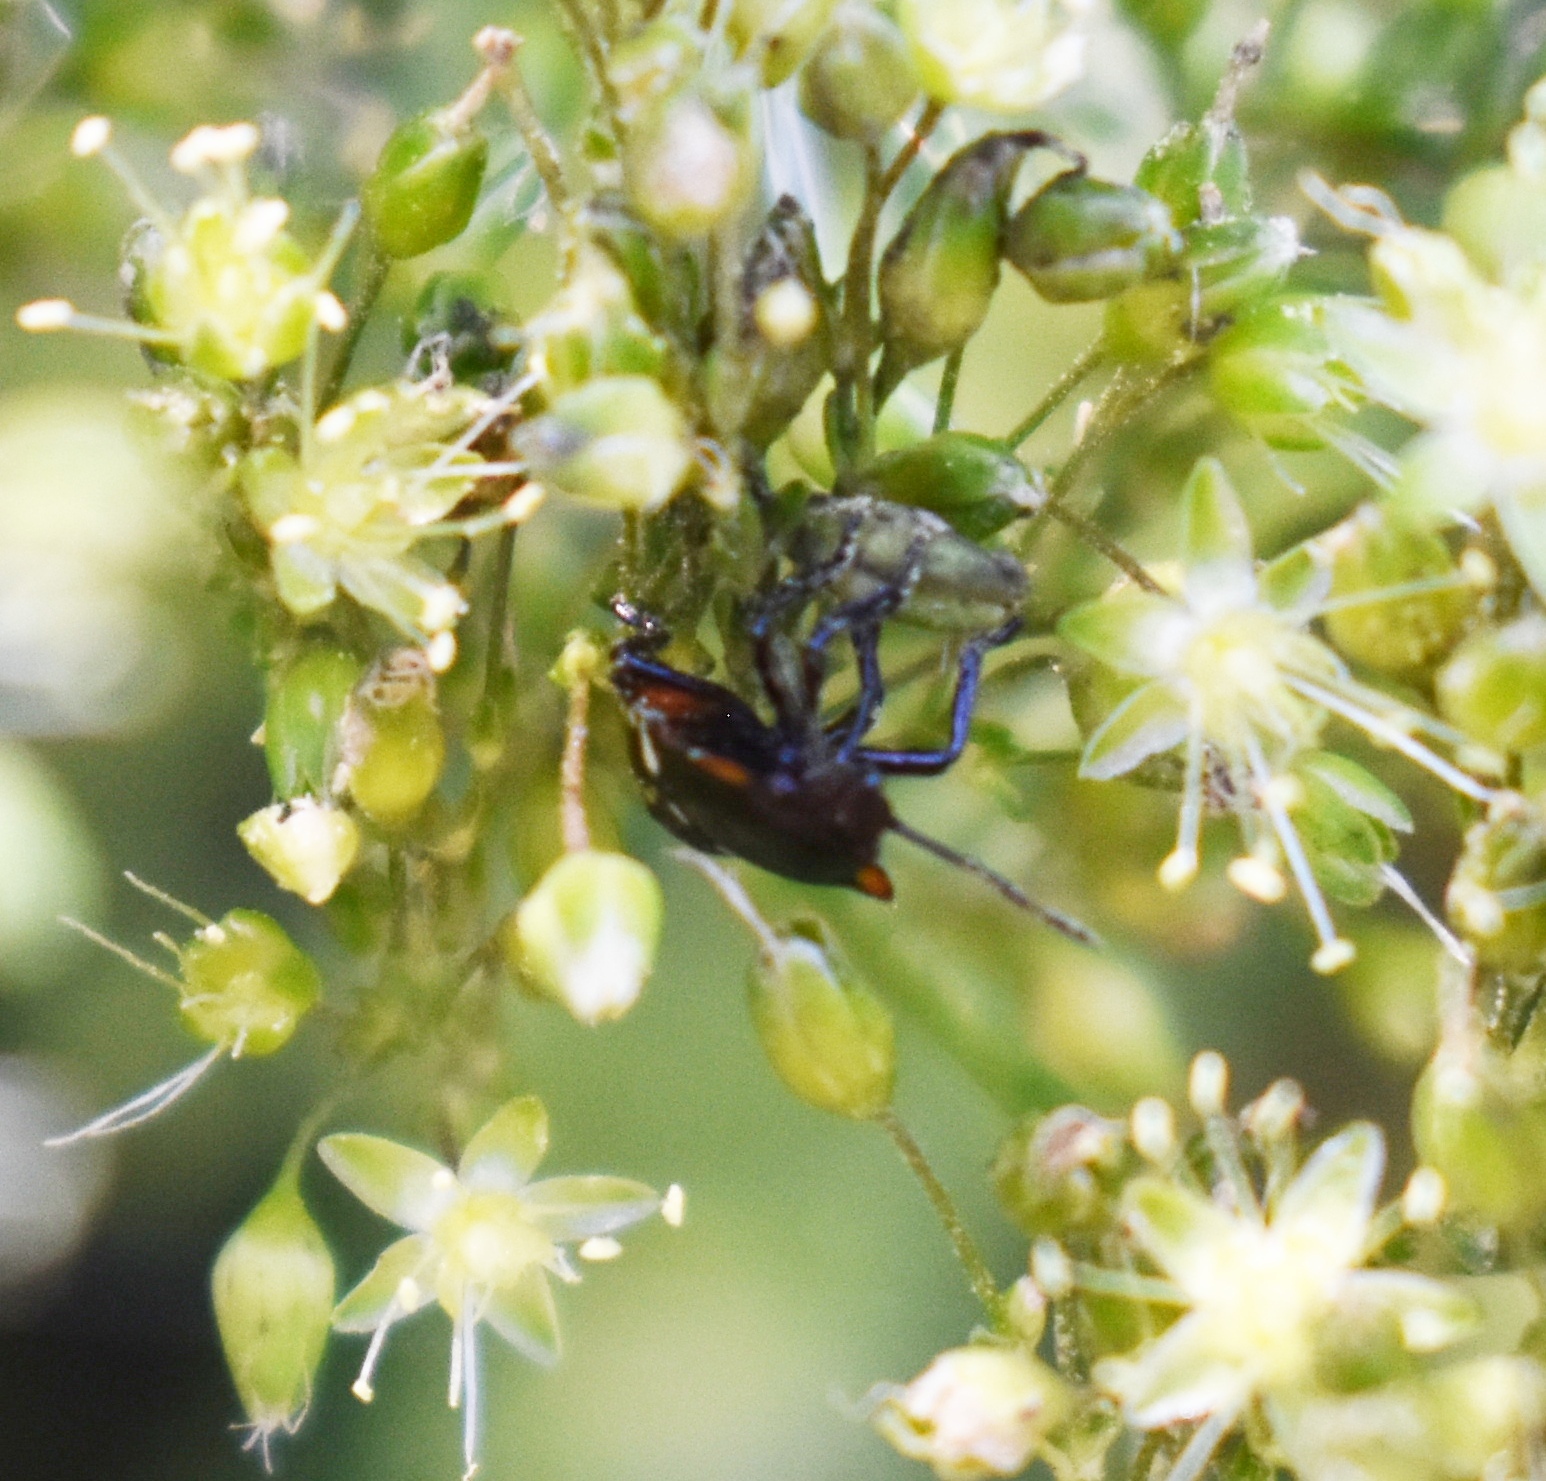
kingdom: Animalia
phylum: Arthropoda
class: Insecta
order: Hemiptera
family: Pentatomidae
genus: Nezara
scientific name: Nezara viridula
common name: Southern green stink bug
